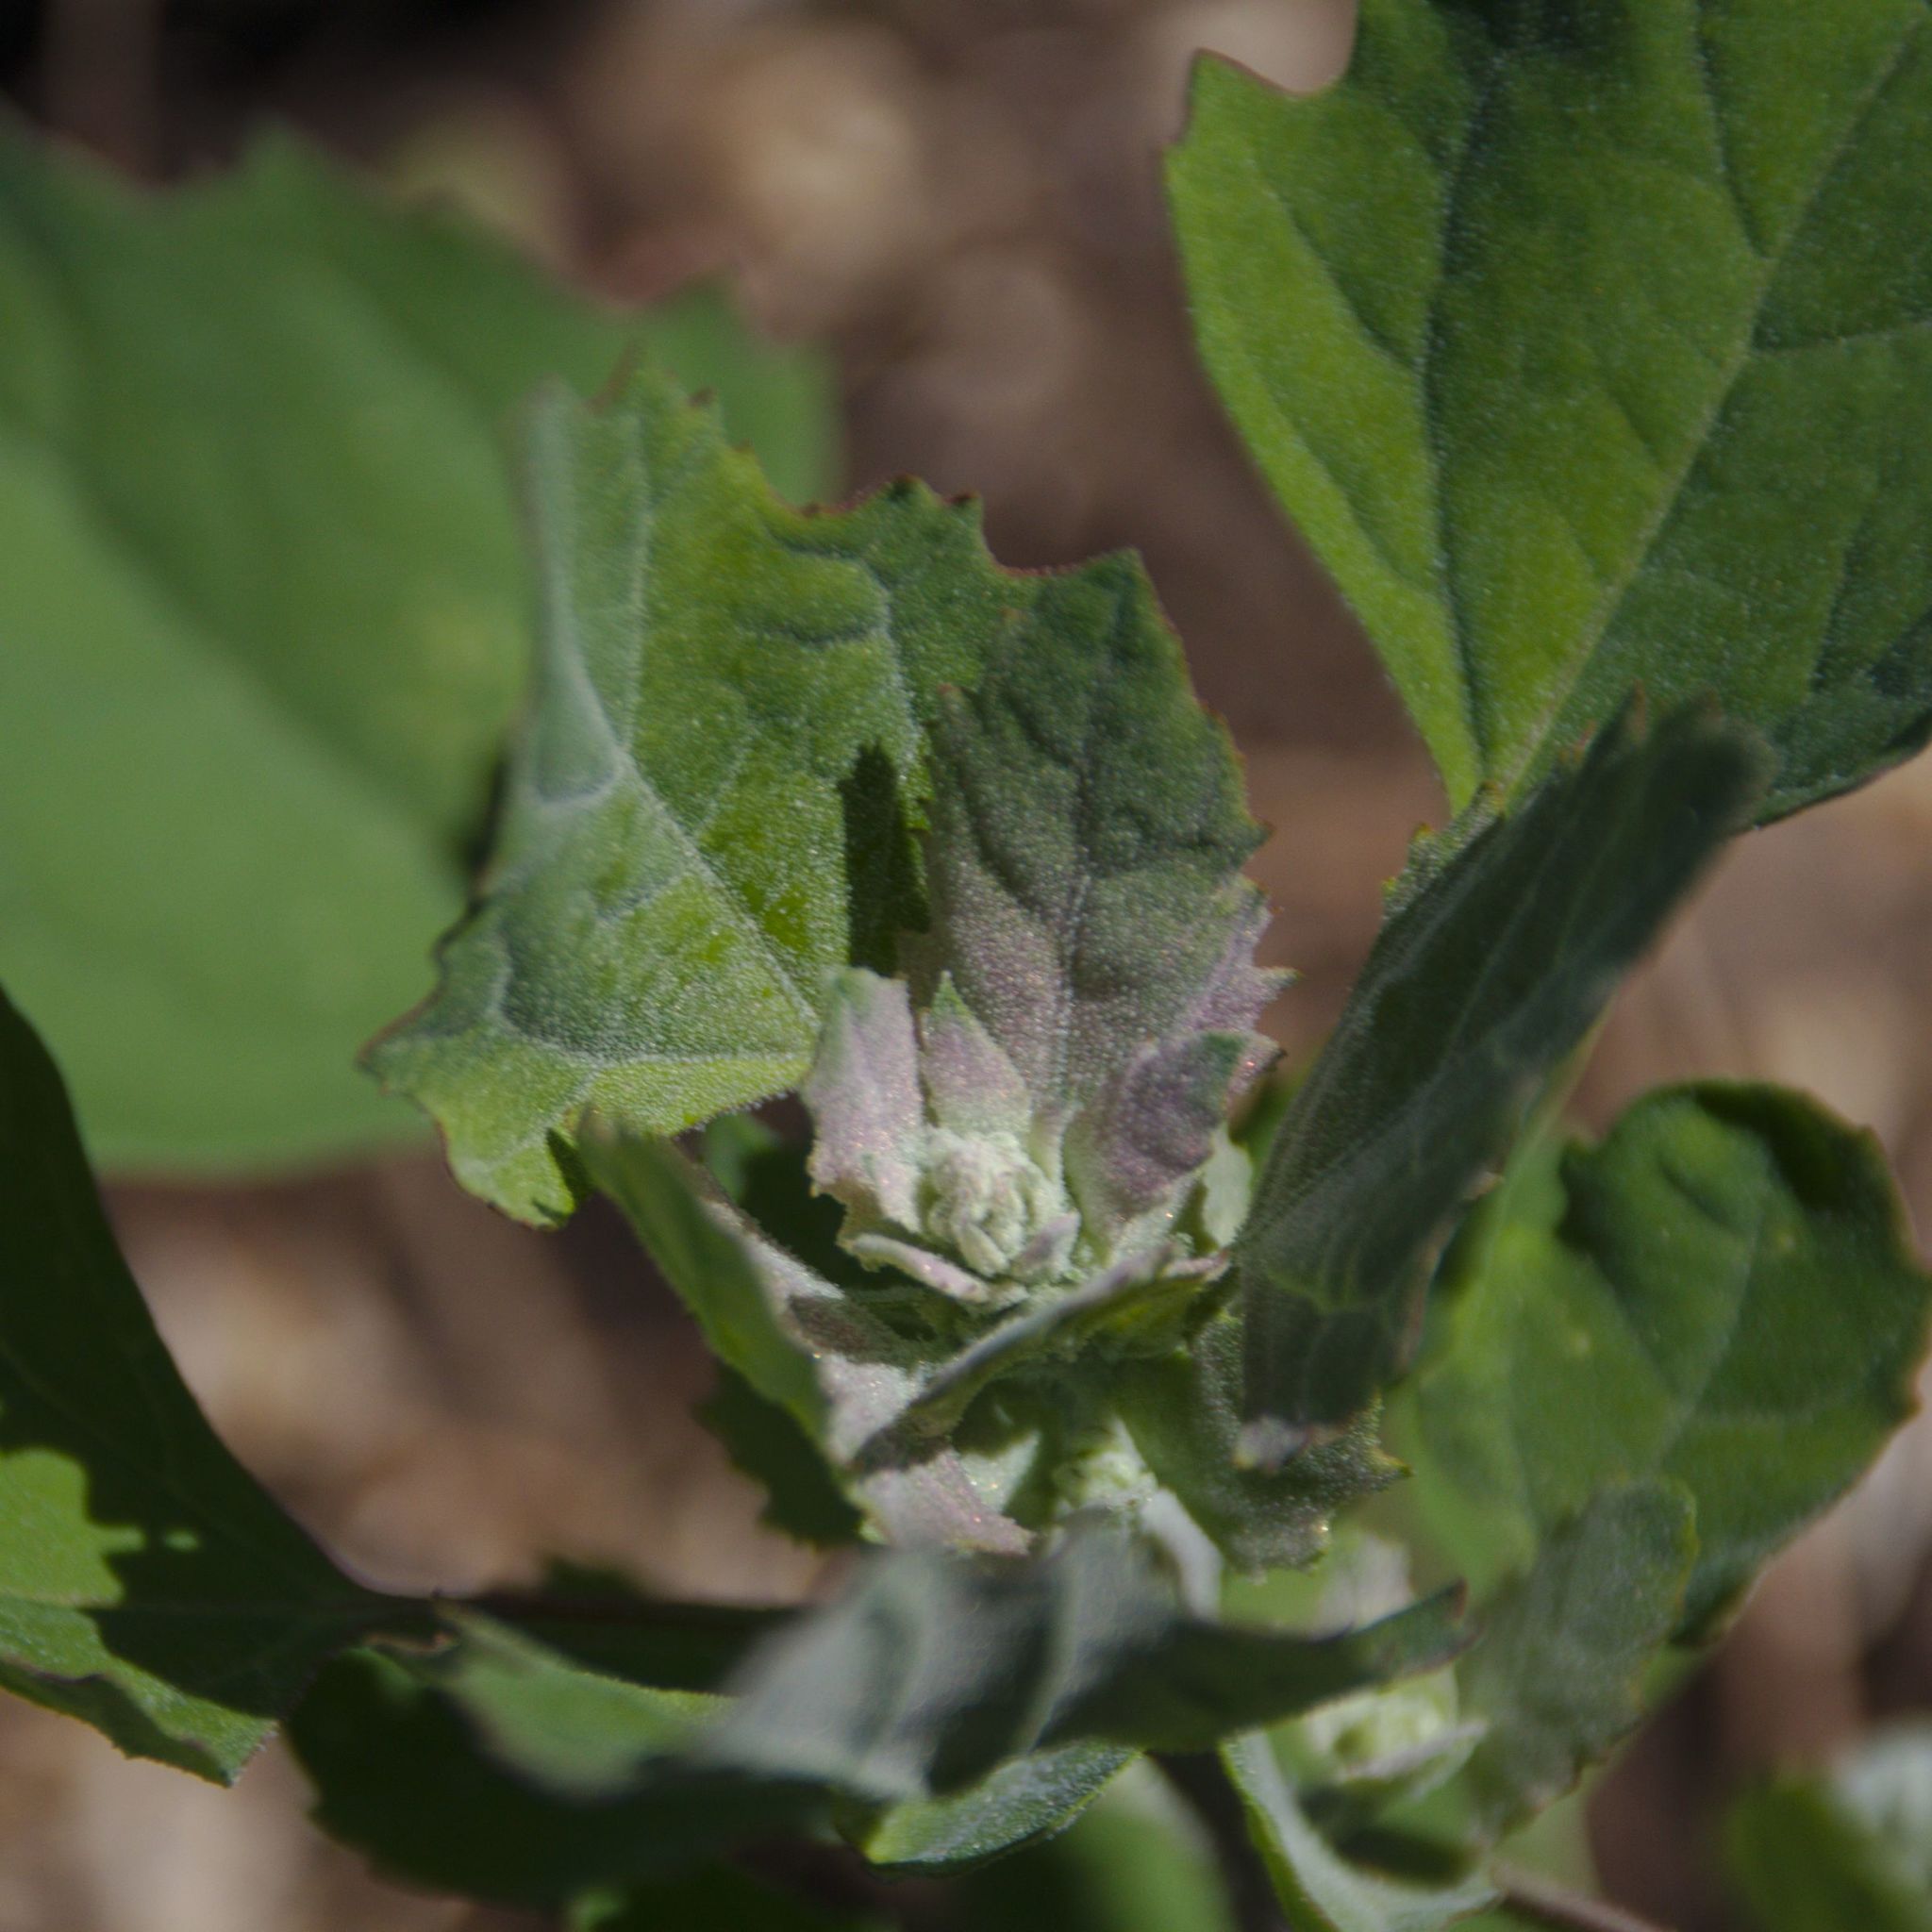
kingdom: Plantae
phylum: Tracheophyta
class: Magnoliopsida
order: Caryophyllales
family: Amaranthaceae
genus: Chenopodium
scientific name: Chenopodium album
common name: Fat-hen
